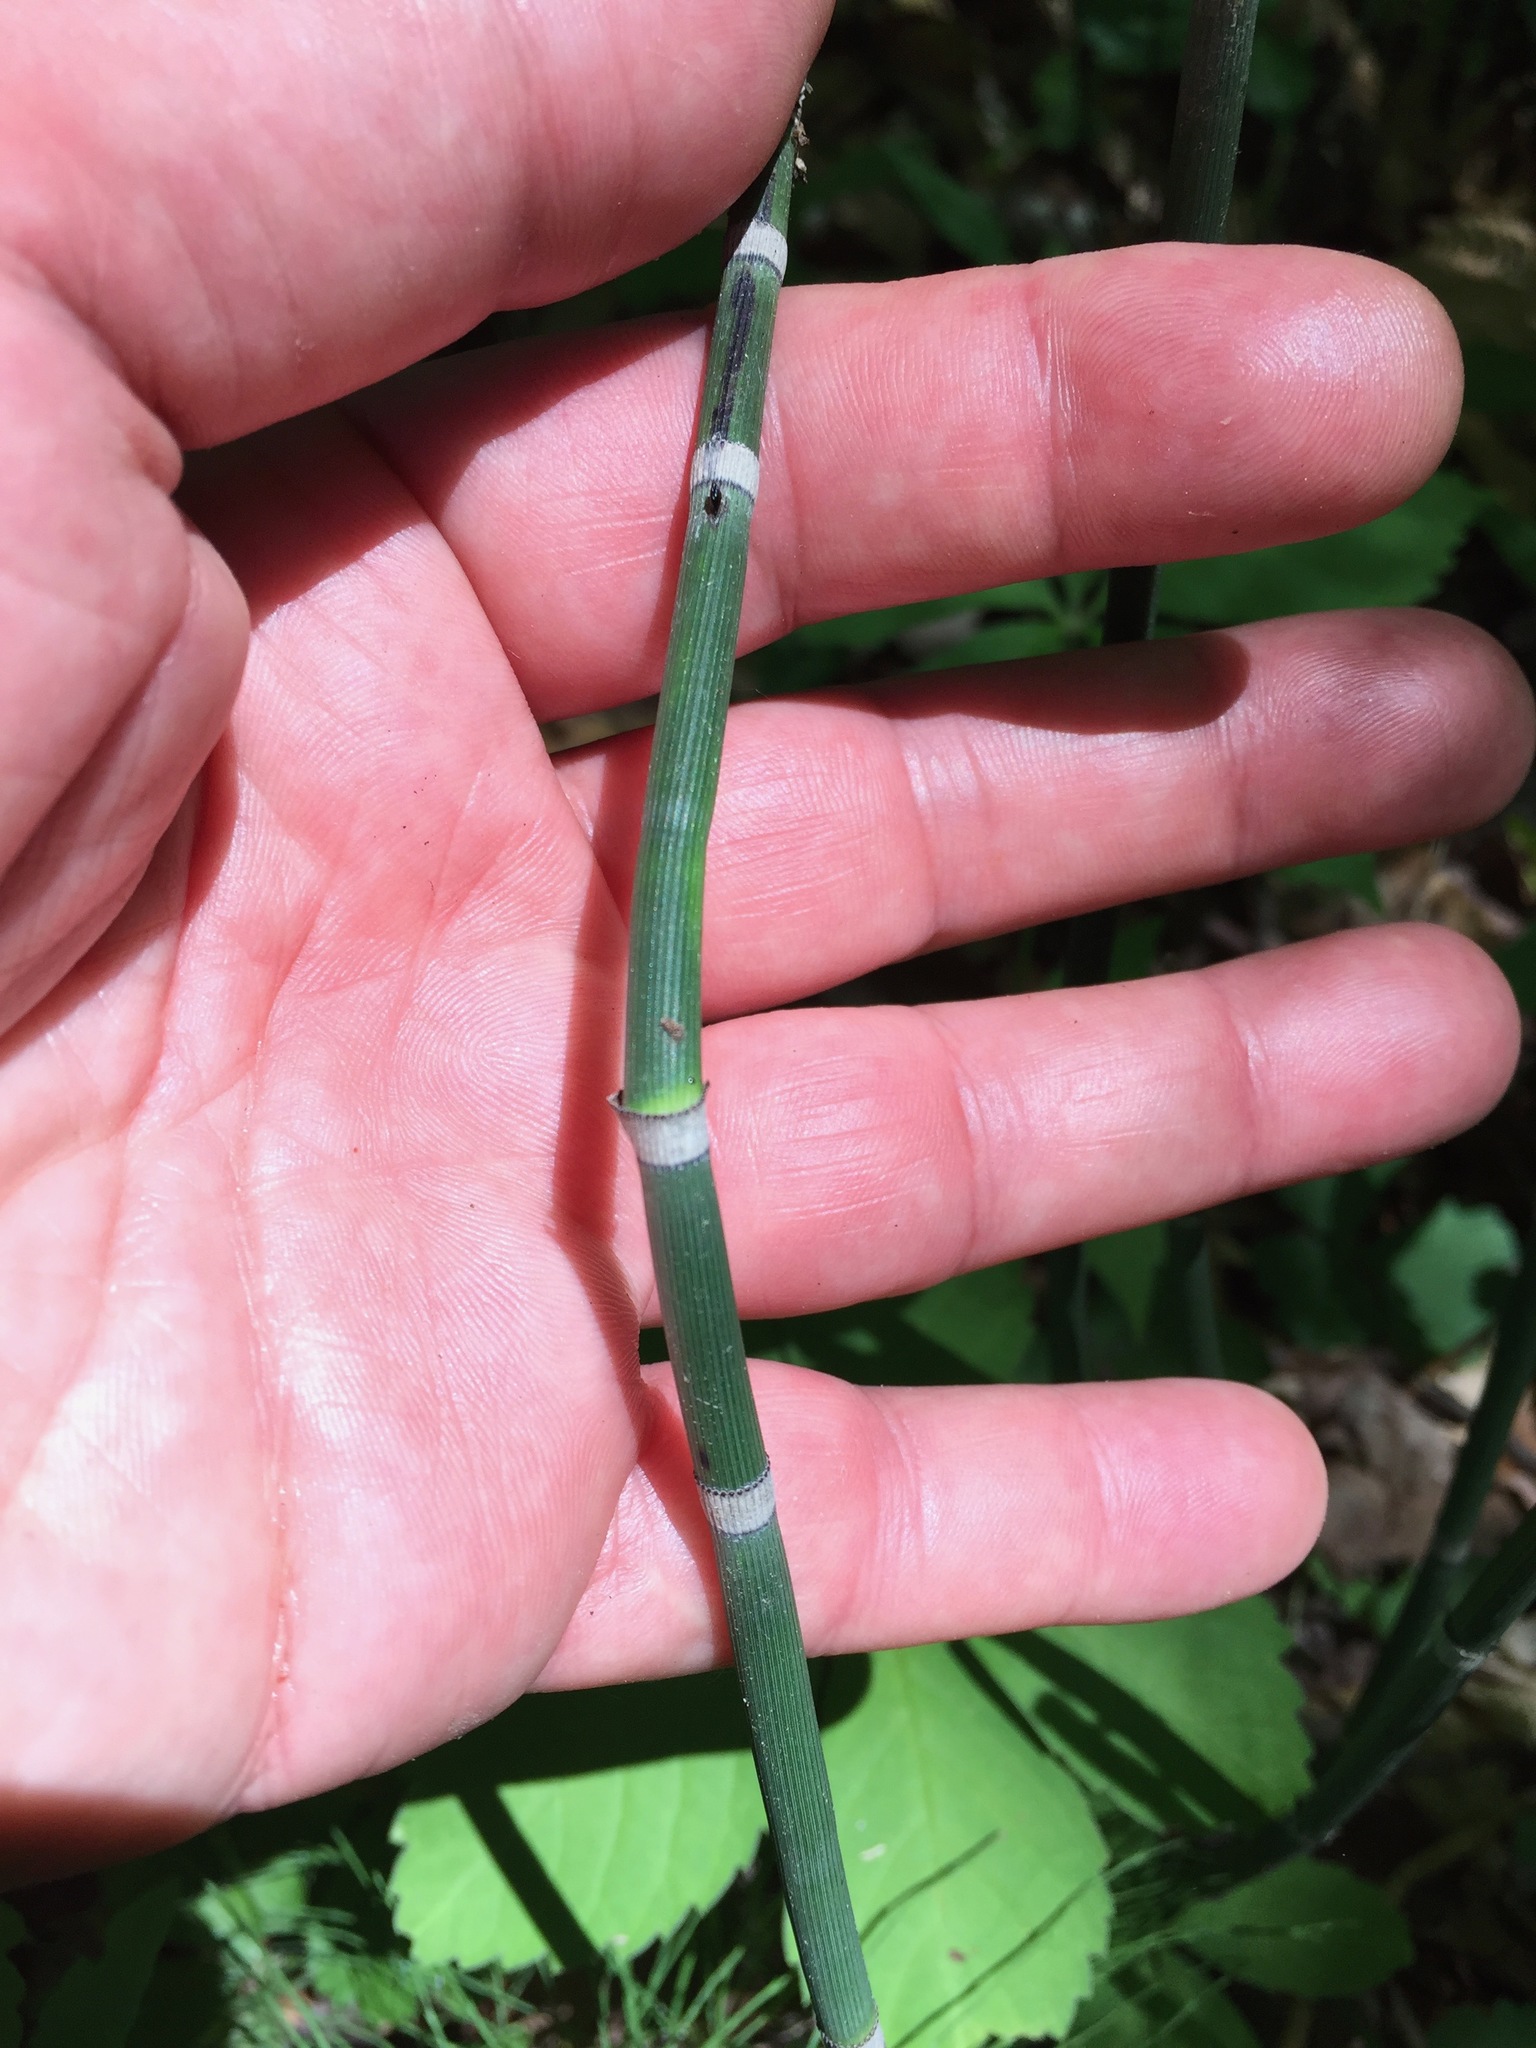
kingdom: Plantae
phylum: Tracheophyta
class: Polypodiopsida
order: Equisetales
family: Equisetaceae
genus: Equisetum
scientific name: Equisetum praealtum
